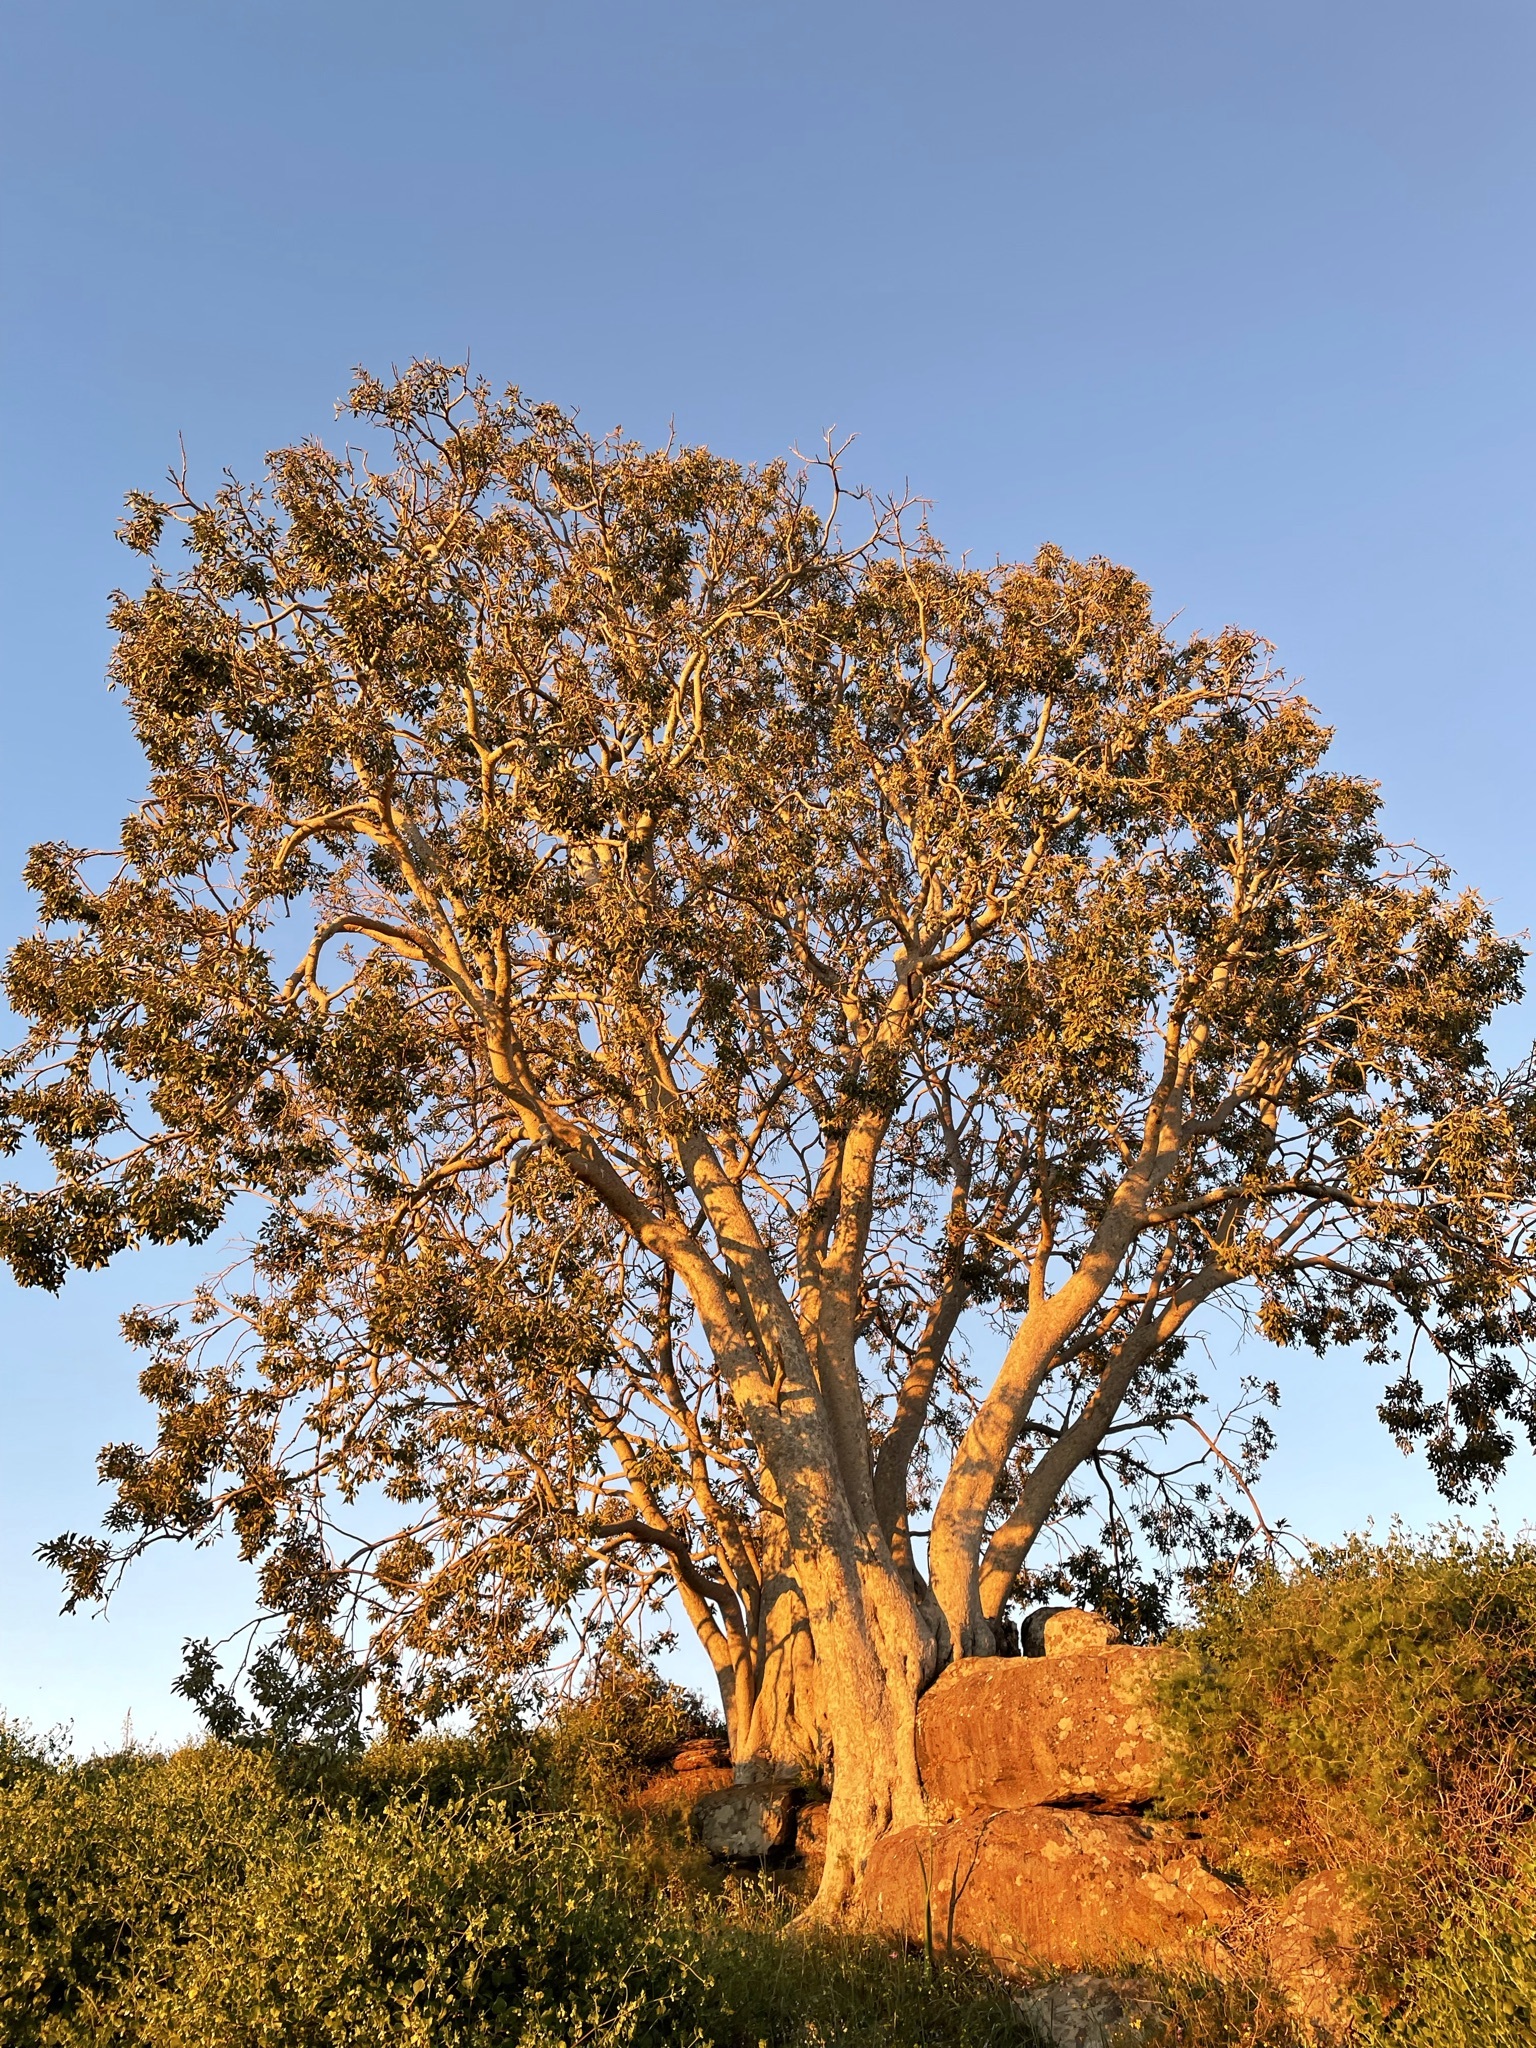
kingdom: Plantae
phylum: Tracheophyta
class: Magnoliopsida
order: Rosales
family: Moraceae
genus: Ficus
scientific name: Ficus cordata
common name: Namaqua rock fig
